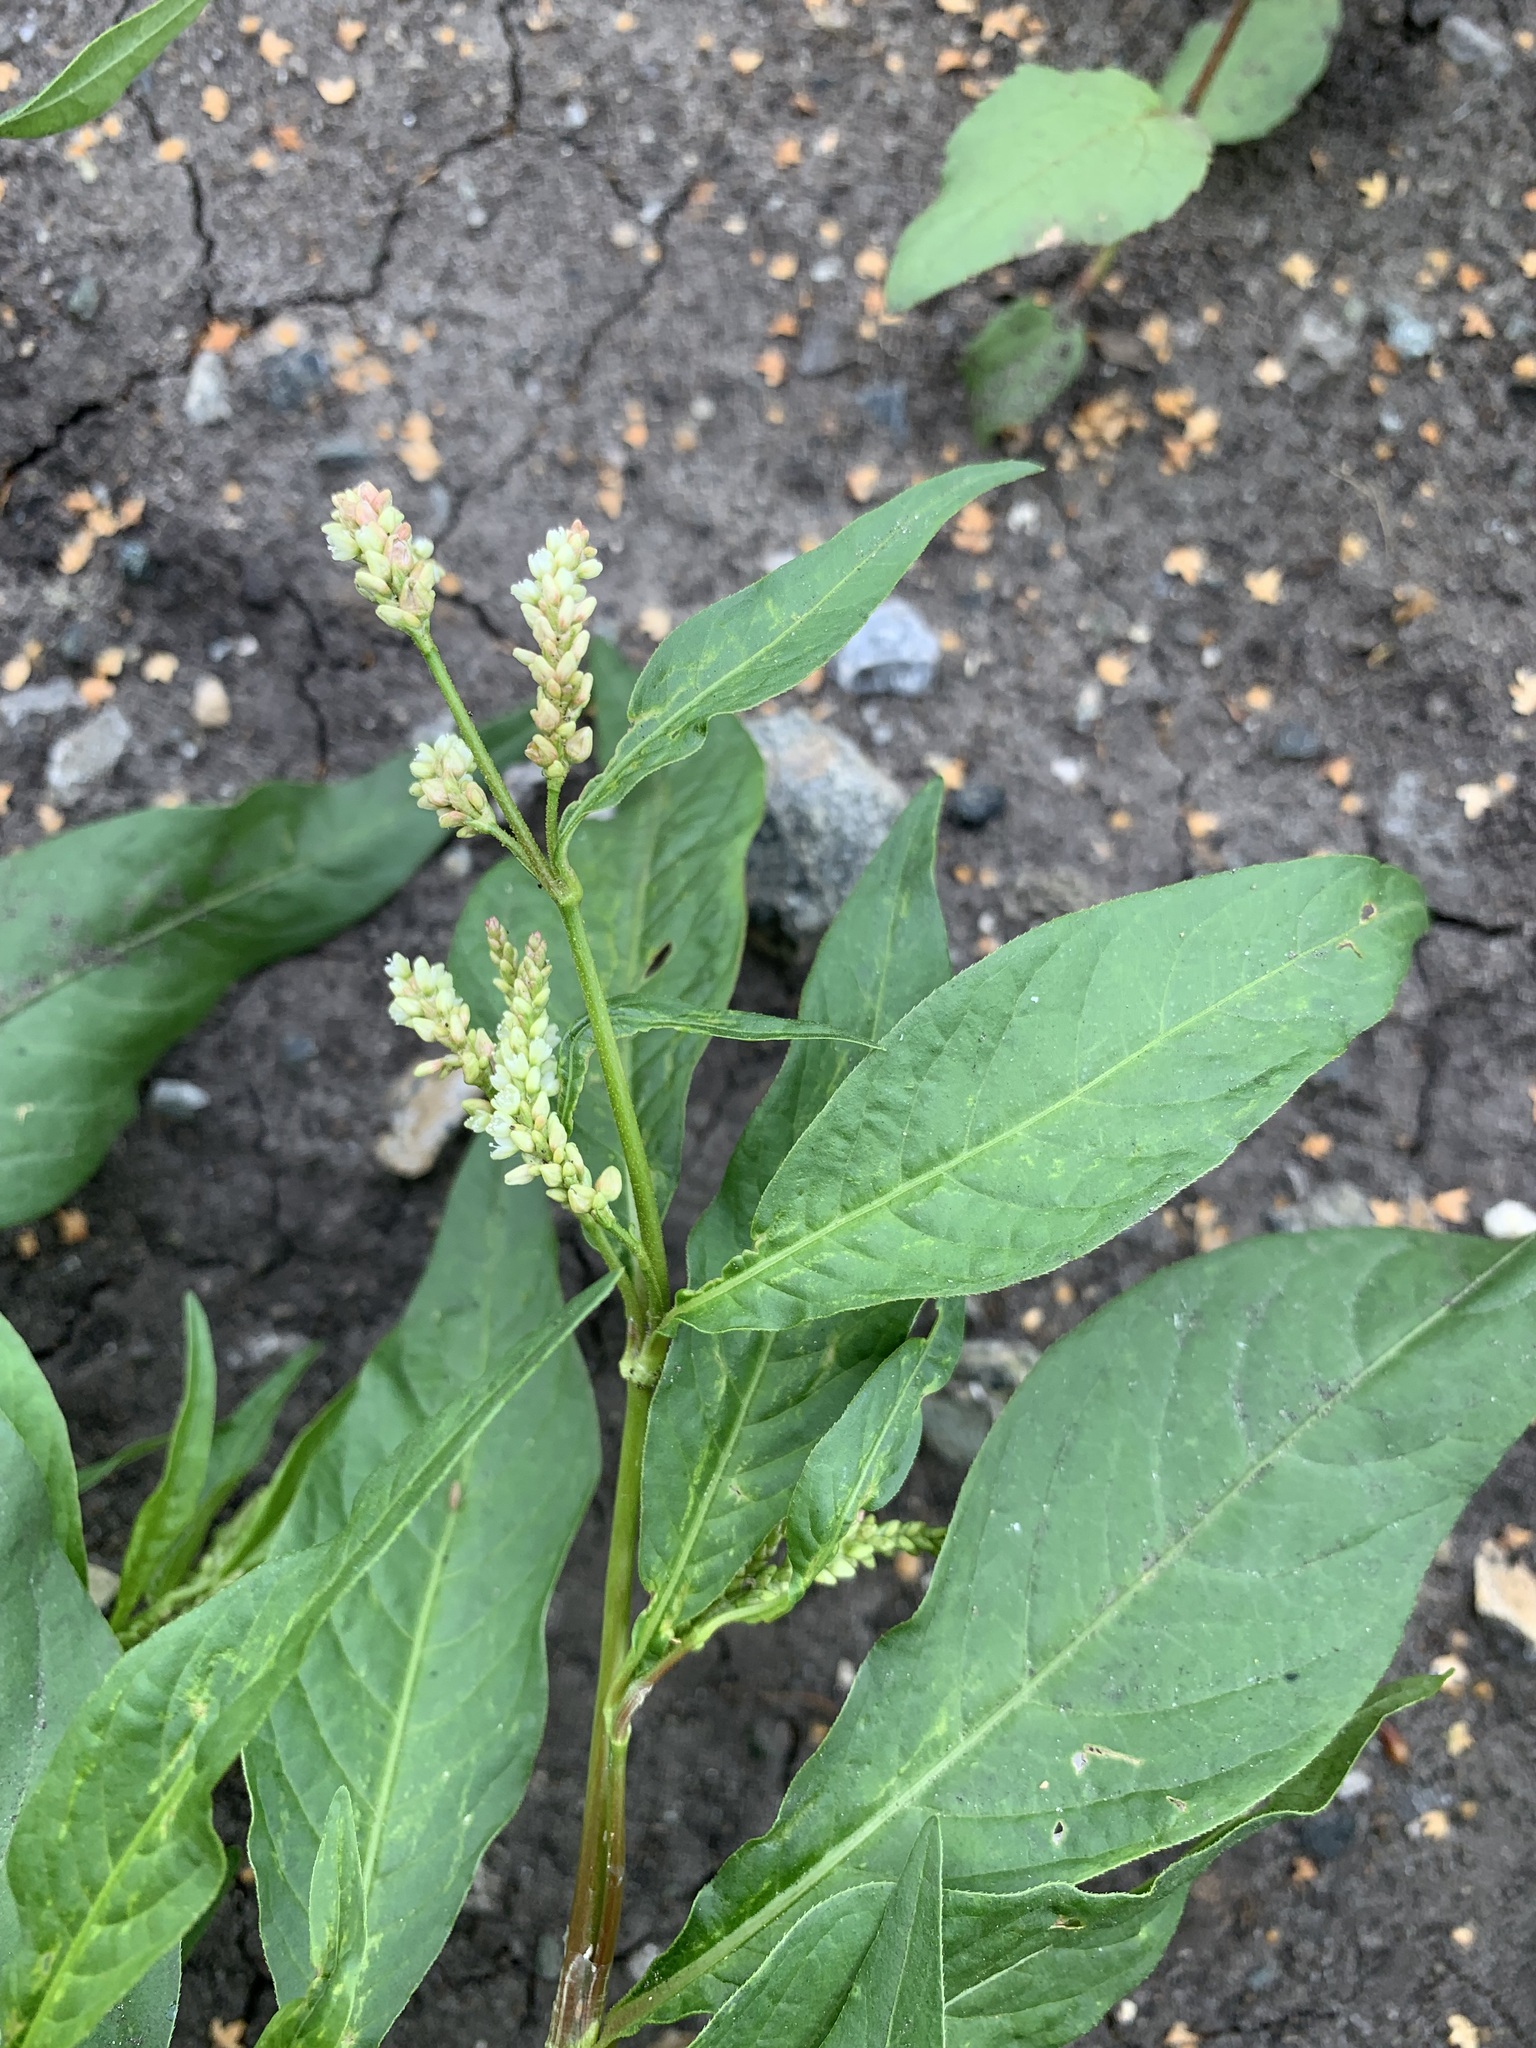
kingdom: Plantae
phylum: Tracheophyta
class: Magnoliopsida
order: Caryophyllales
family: Polygonaceae
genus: Persicaria
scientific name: Persicaria lapathifolia
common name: Curlytop knotweed
